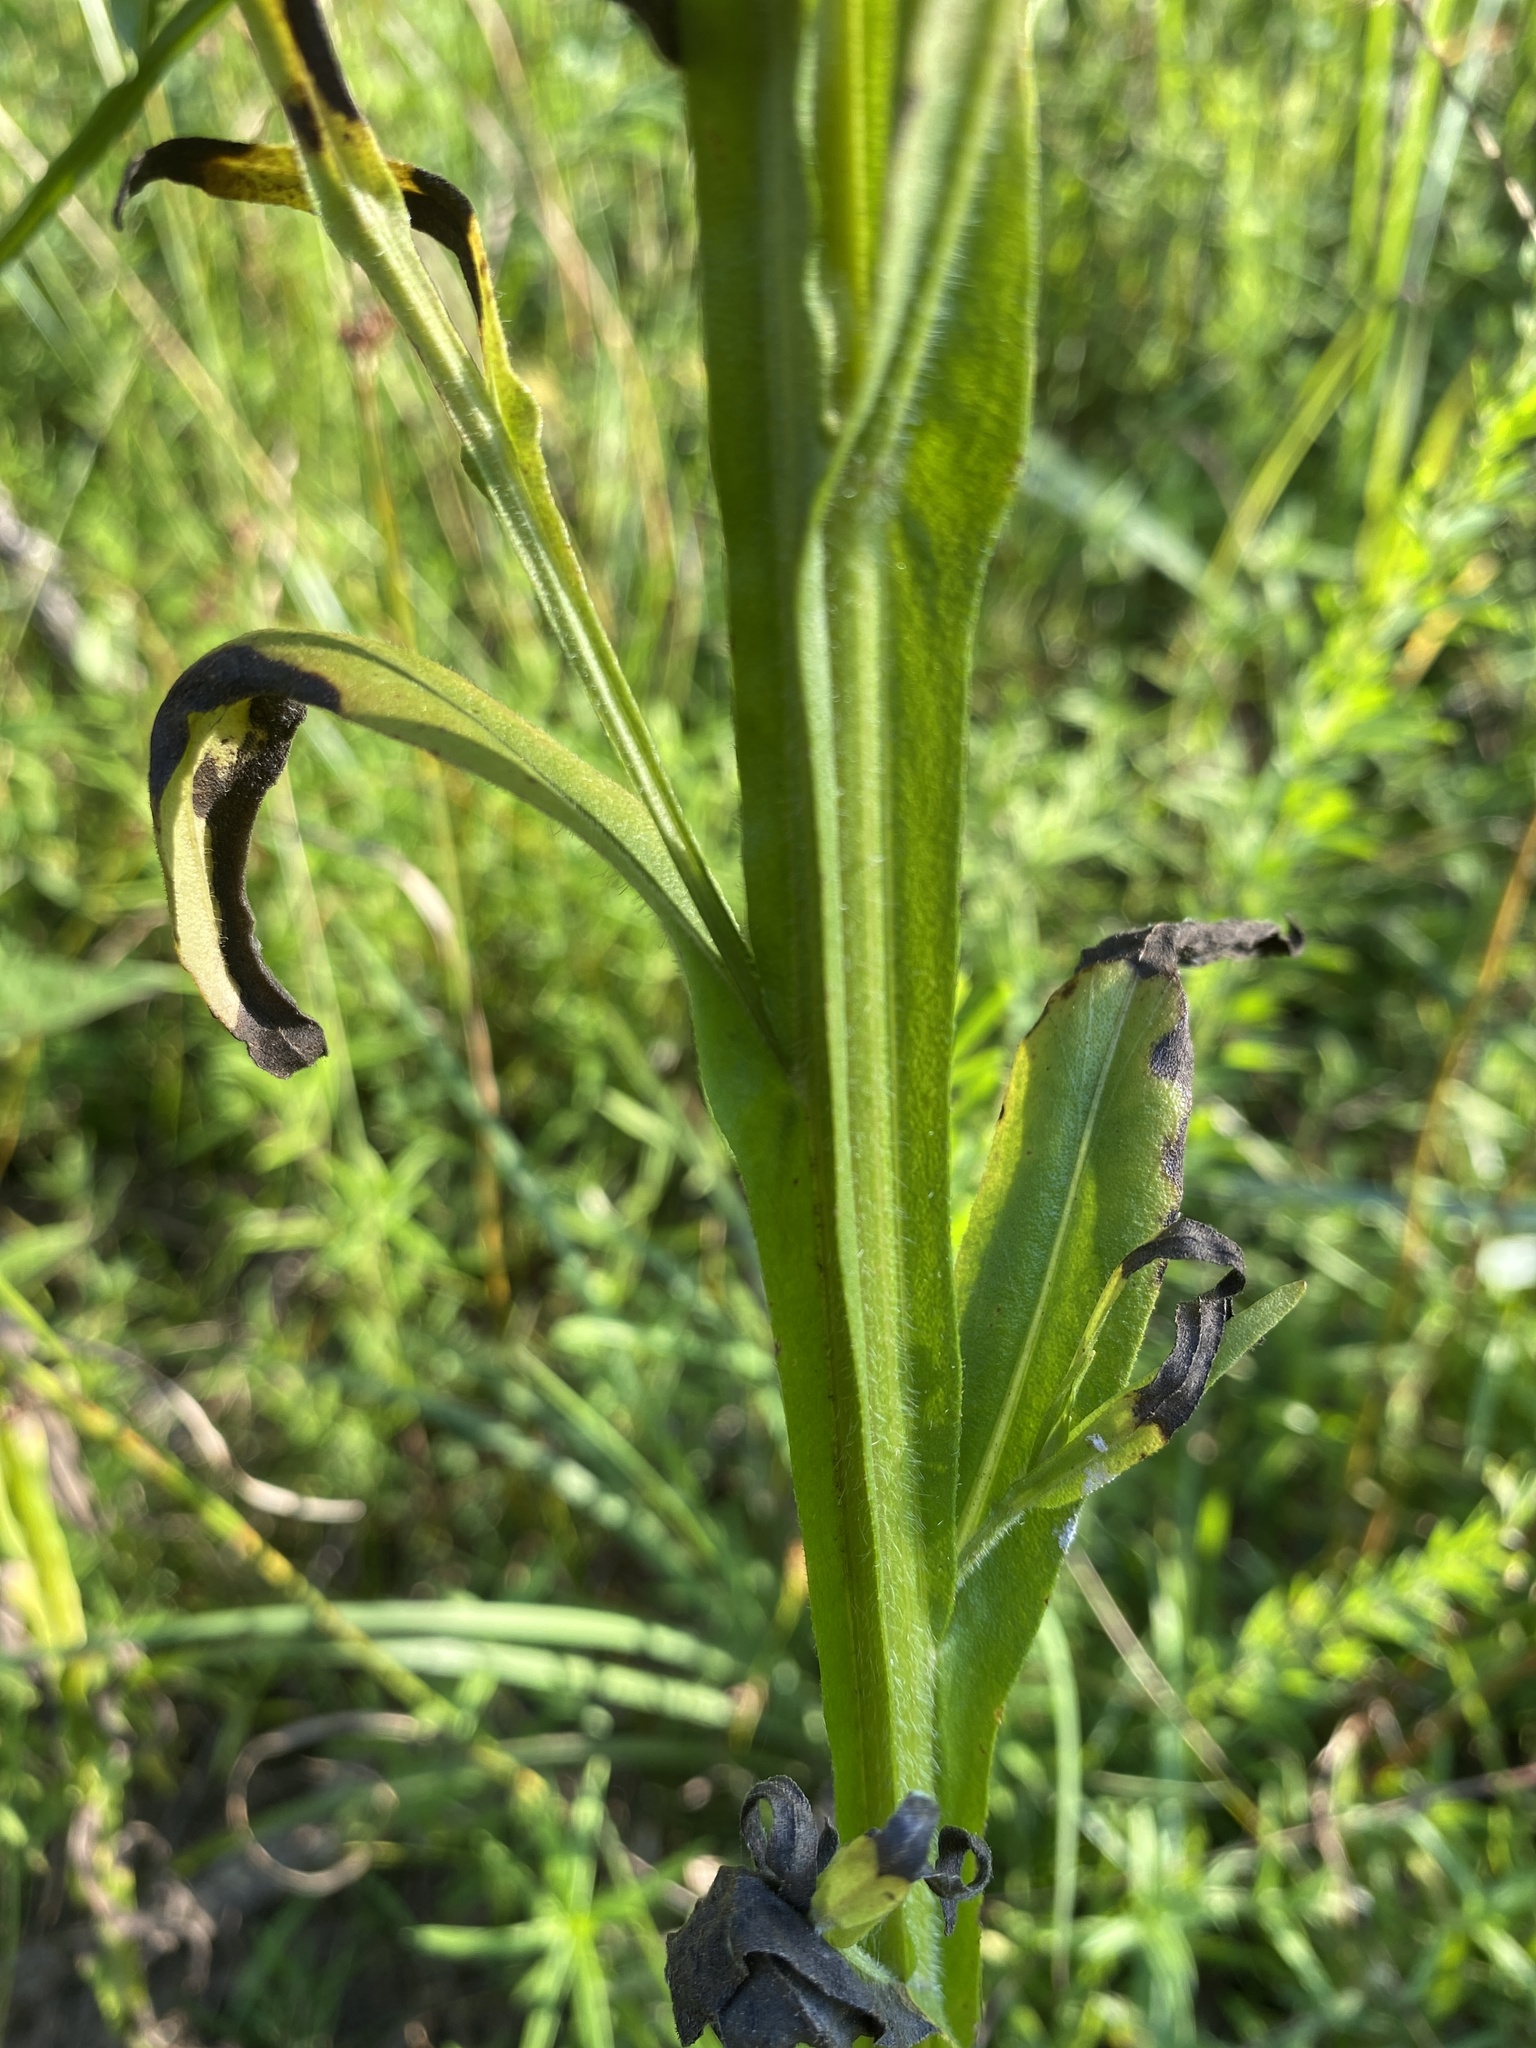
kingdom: Plantae
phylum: Tracheophyta
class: Magnoliopsida
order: Asterales
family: Asteraceae
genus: Helenium
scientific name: Helenium flexuosum
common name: Naked-flowered sneezeweed
